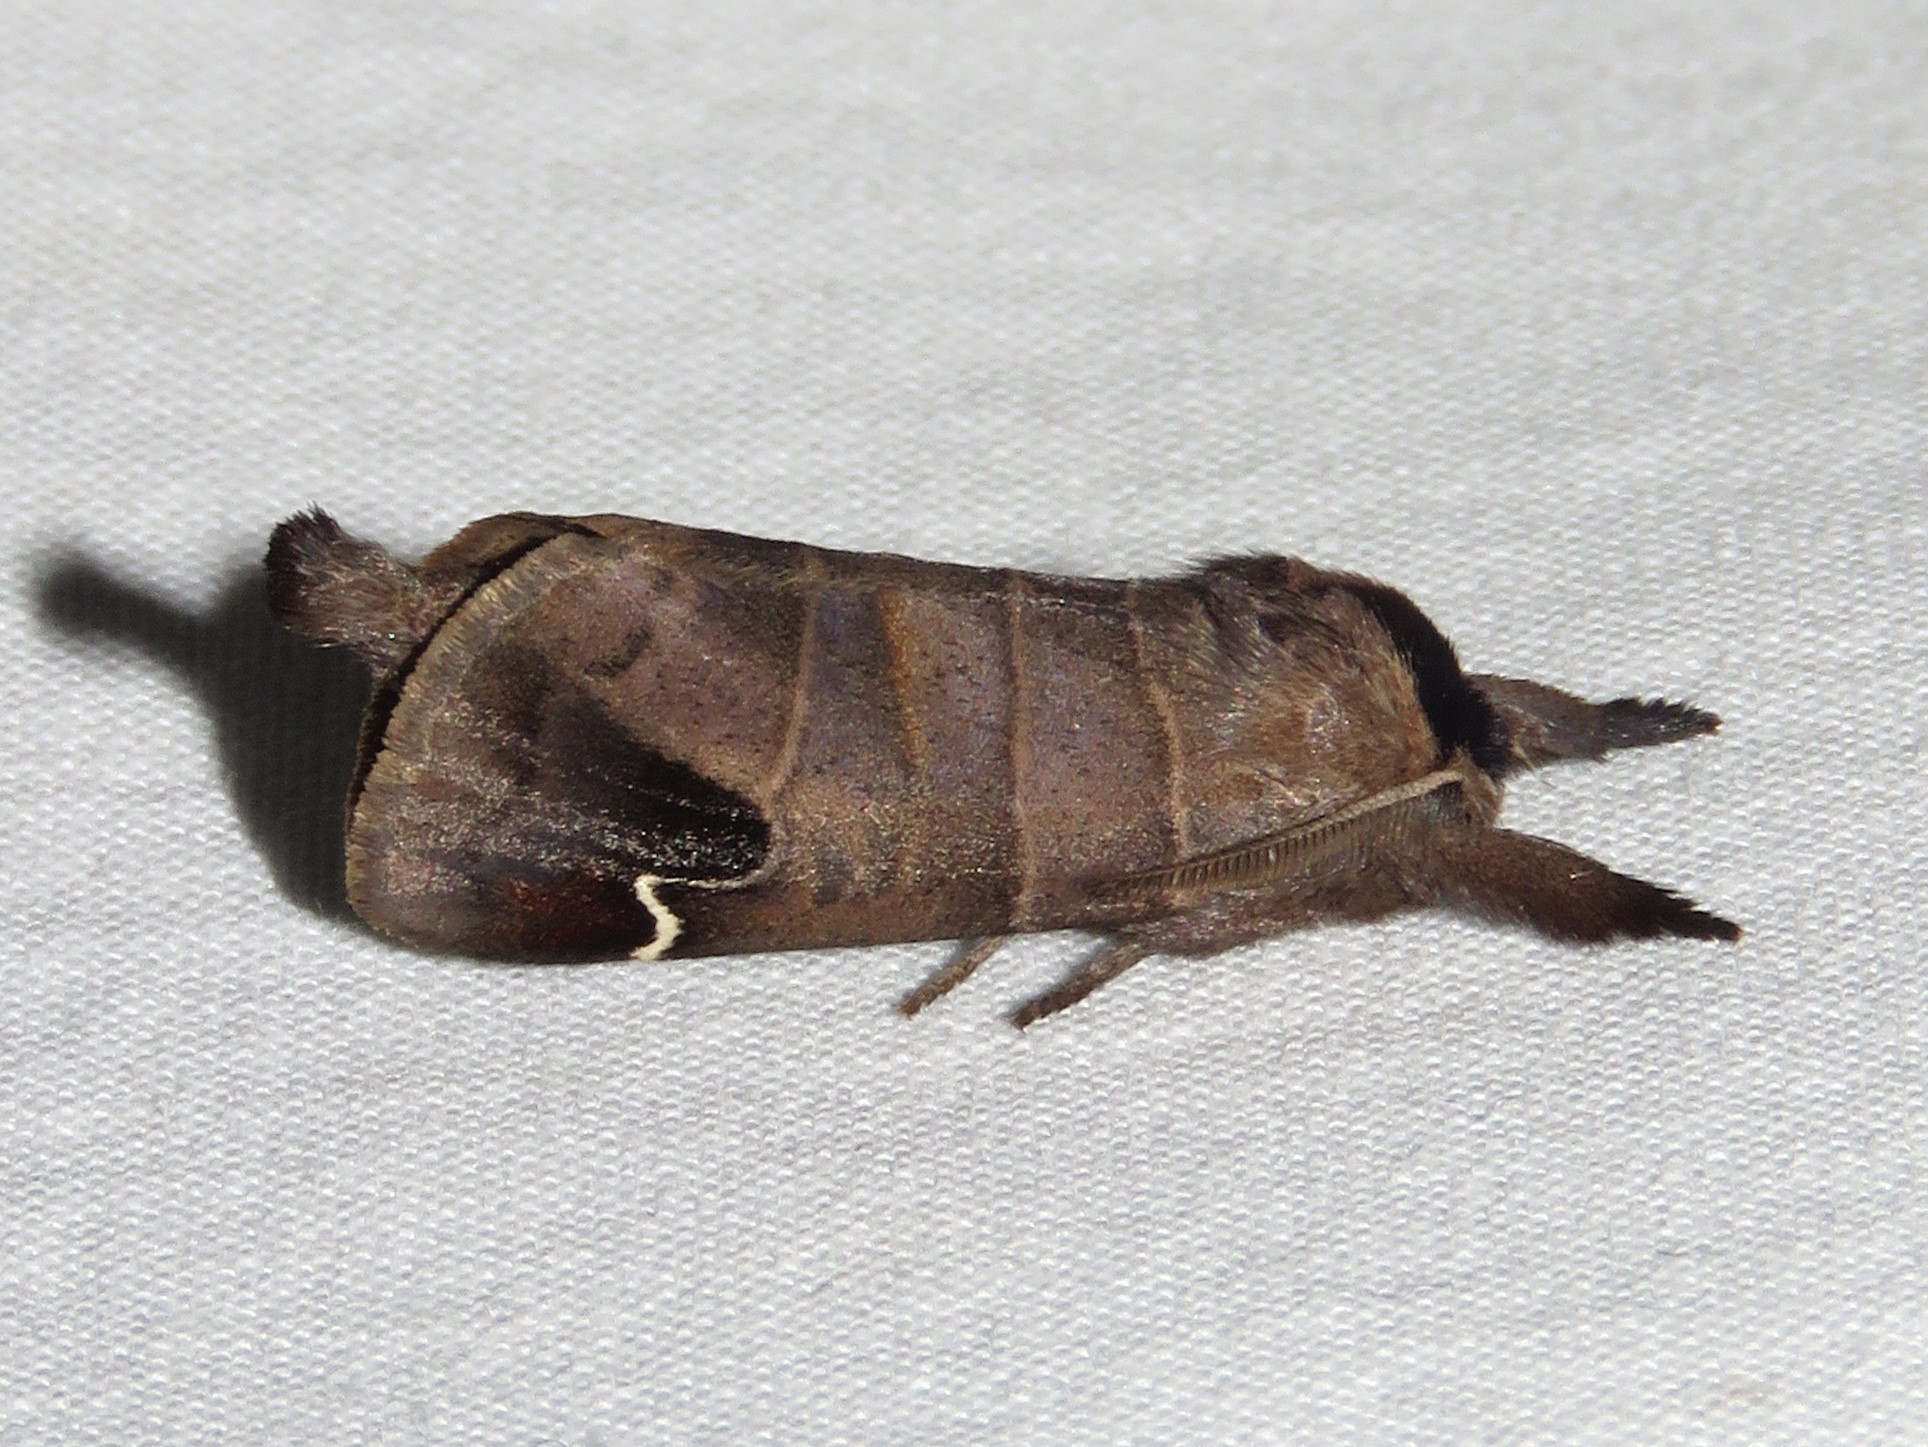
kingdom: Animalia
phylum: Arthropoda
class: Insecta
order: Lepidoptera
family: Notodontidae
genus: Clostera
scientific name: Clostera albosigma
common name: Sigmoid prominent
